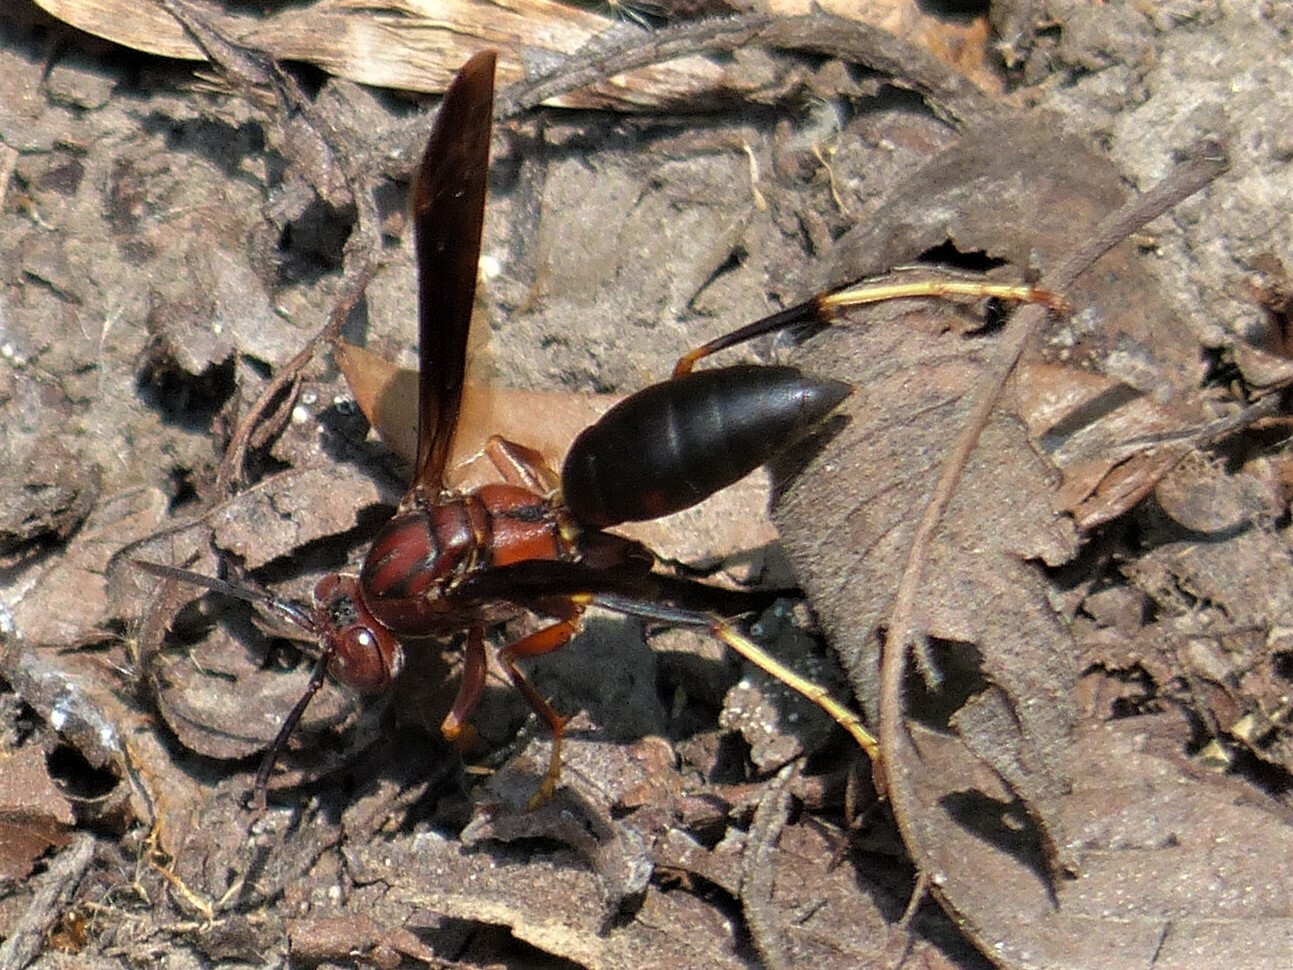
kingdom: Animalia
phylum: Arthropoda
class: Insecta
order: Hymenoptera
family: Eumenidae
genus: Polistes
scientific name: Polistes metricus
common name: Metric paper wasp
